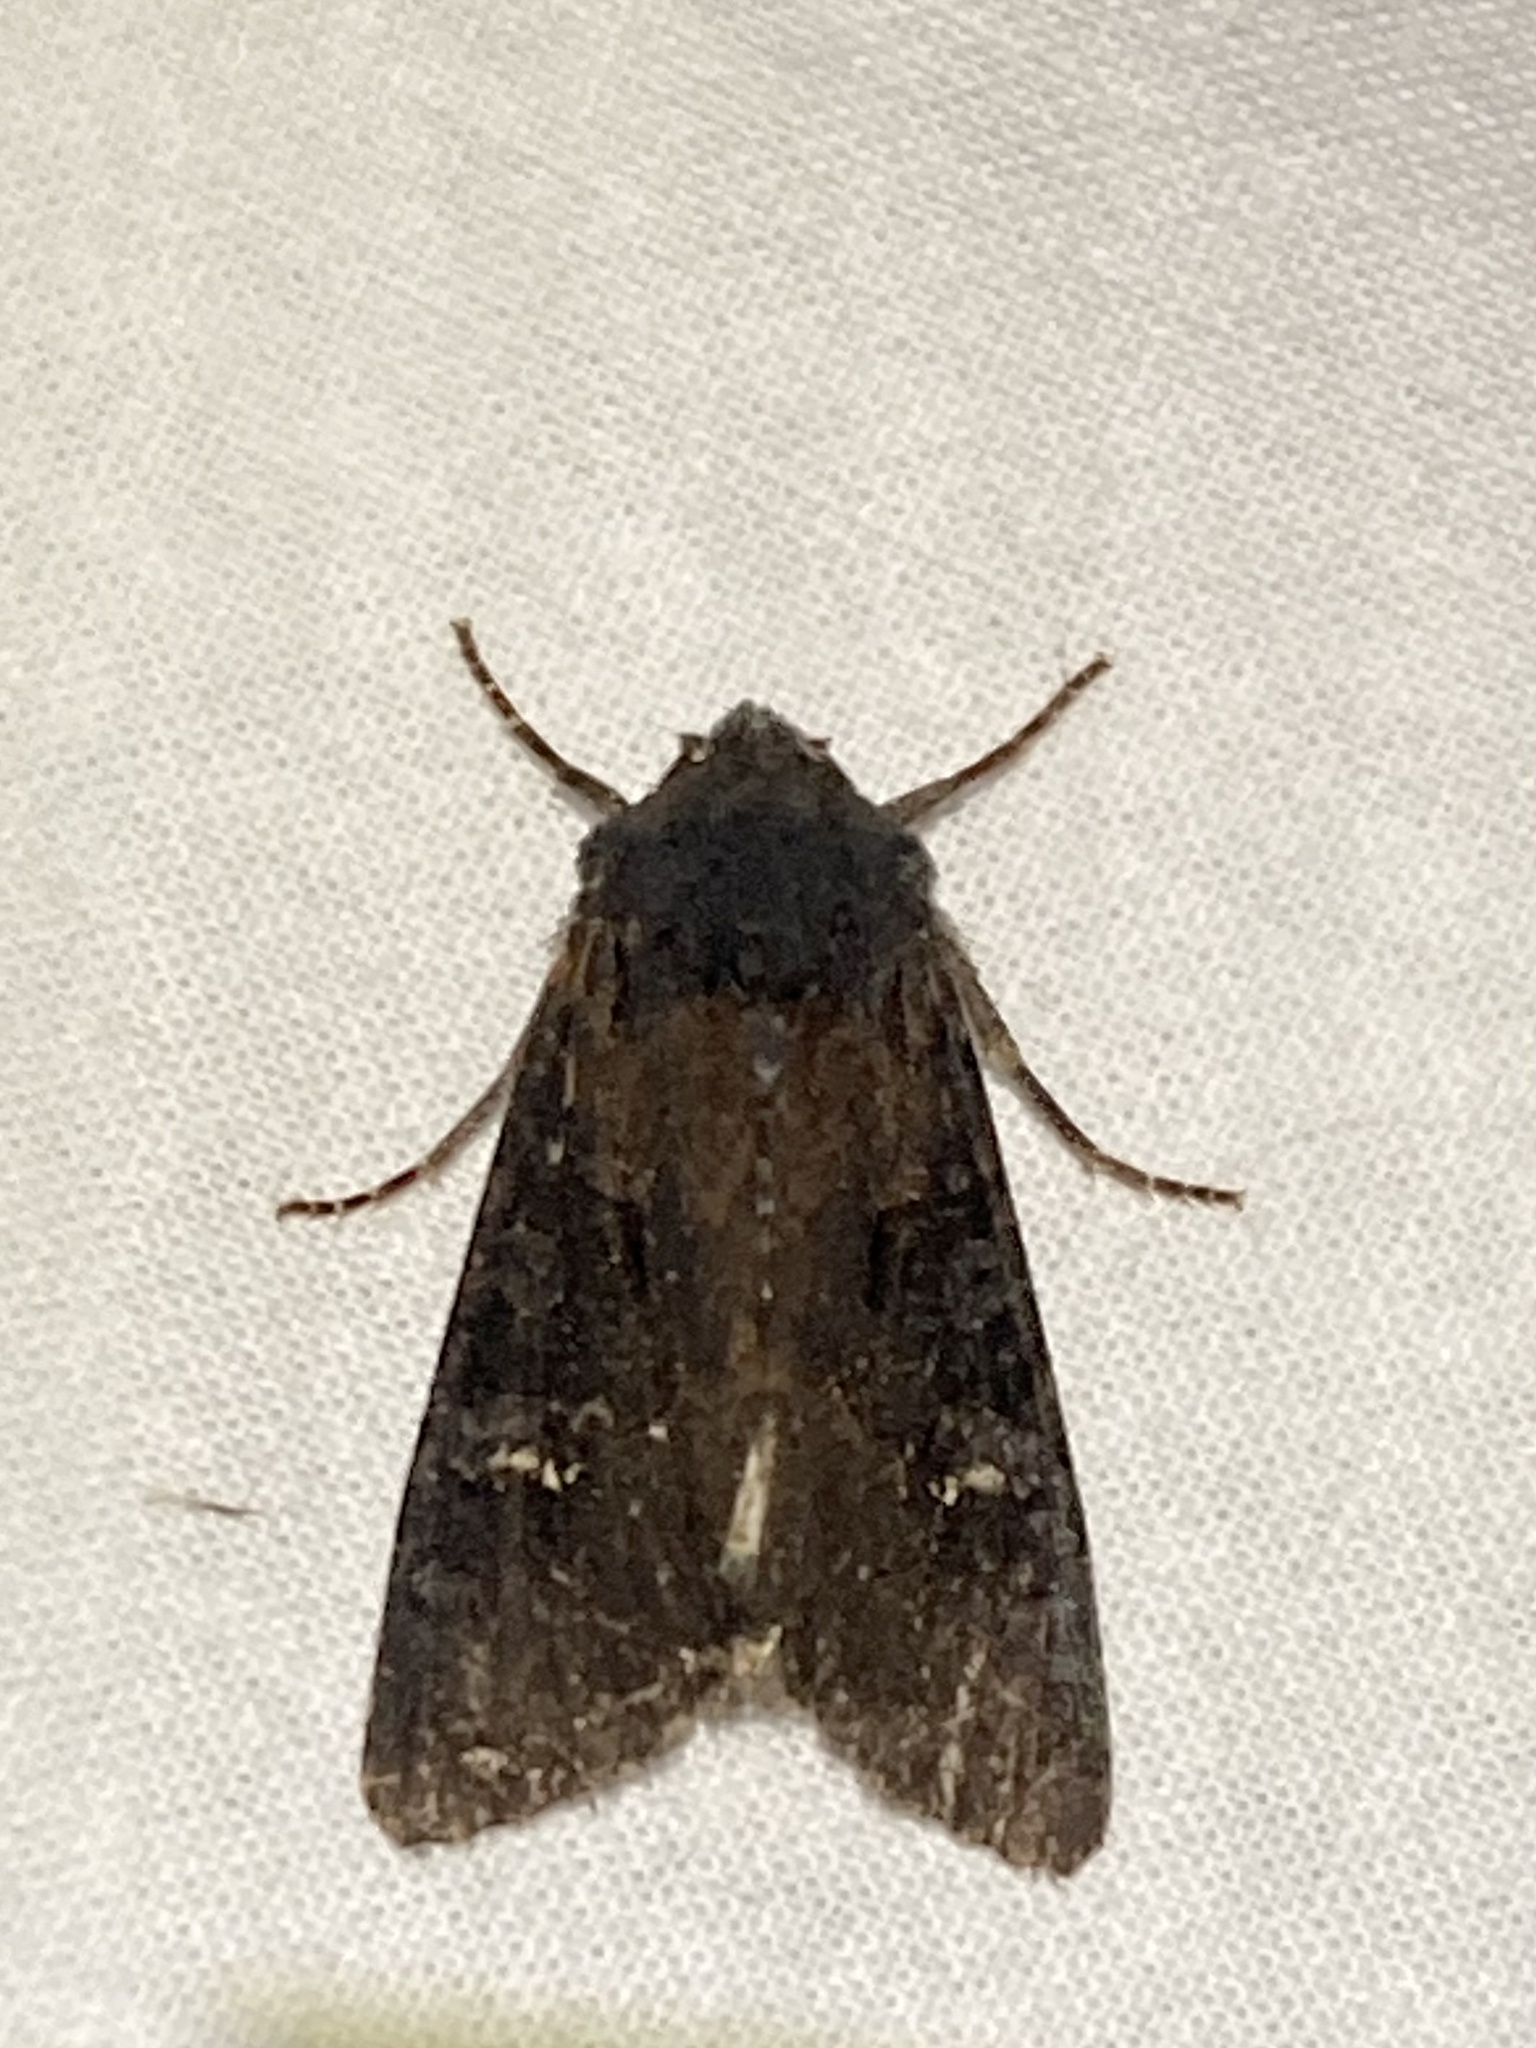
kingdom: Animalia
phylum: Arthropoda
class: Insecta
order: Lepidoptera
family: Noctuidae
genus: Aporophyla
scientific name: Aporophyla nigra
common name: Black rustic
